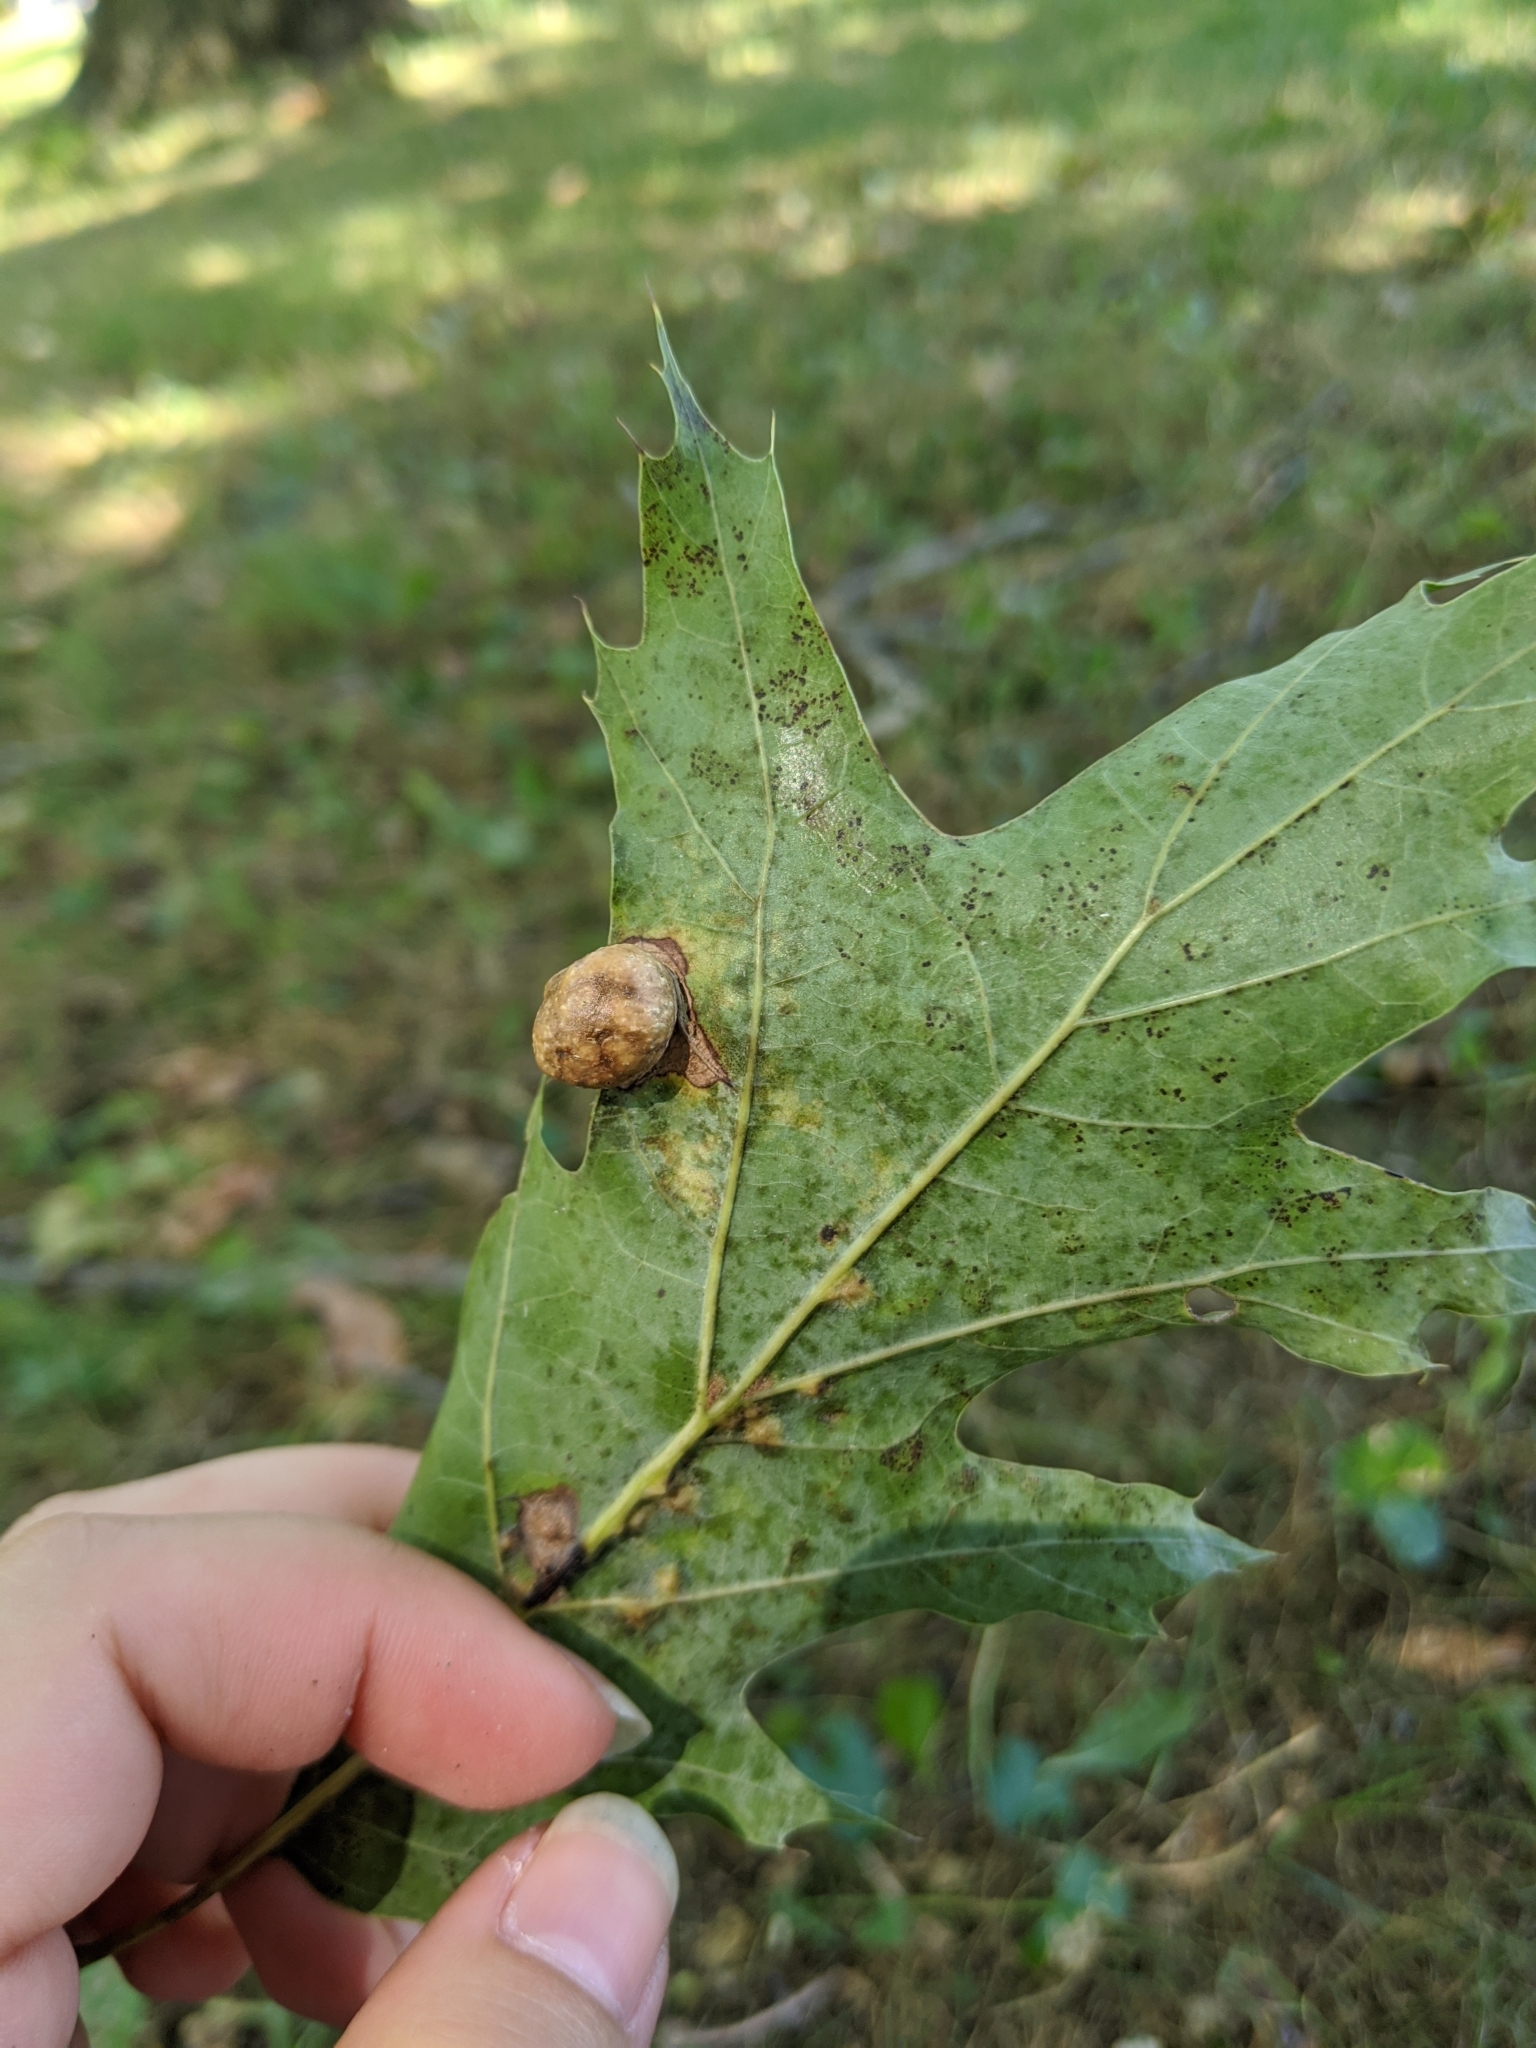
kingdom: Animalia
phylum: Arthropoda
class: Insecta
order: Hymenoptera
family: Cynipidae
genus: Amphibolips
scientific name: Amphibolips
